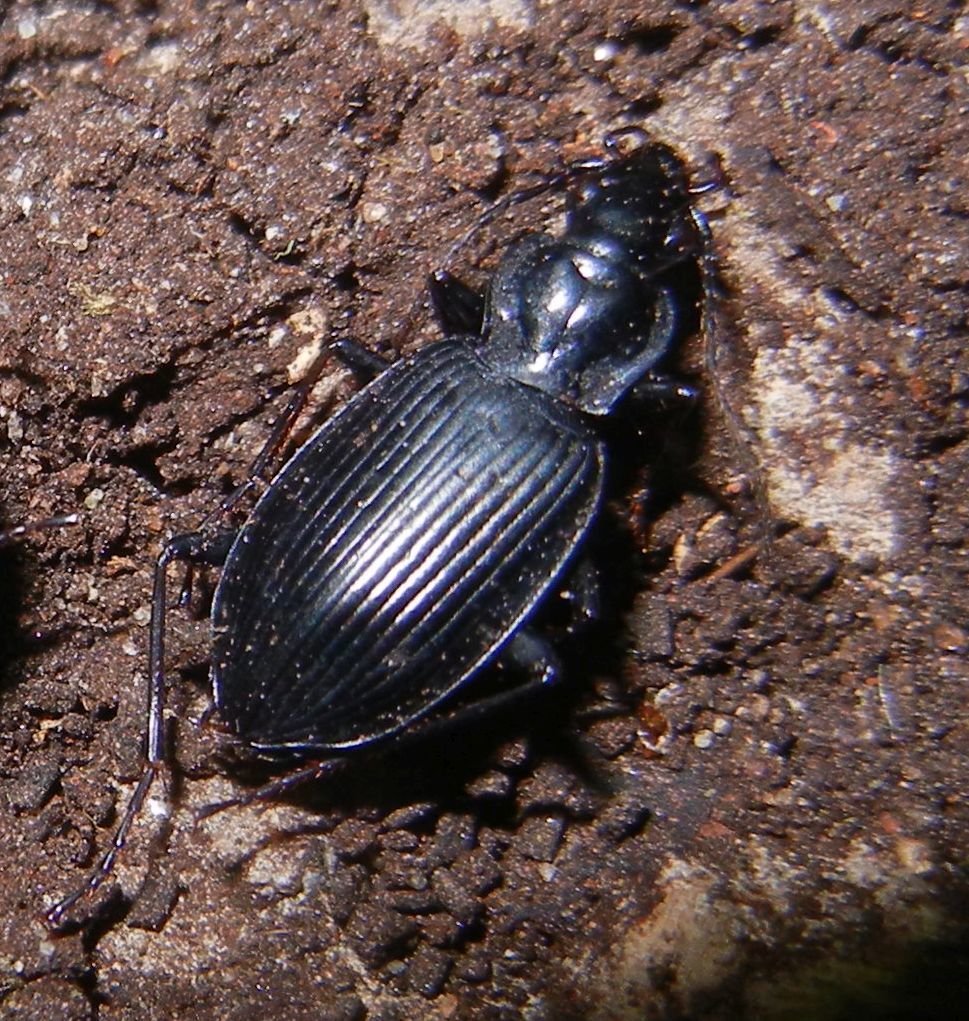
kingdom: Animalia
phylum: Arthropoda
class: Insecta
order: Coleoptera
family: Carabidae
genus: Platynus
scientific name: Platynus assimilis
